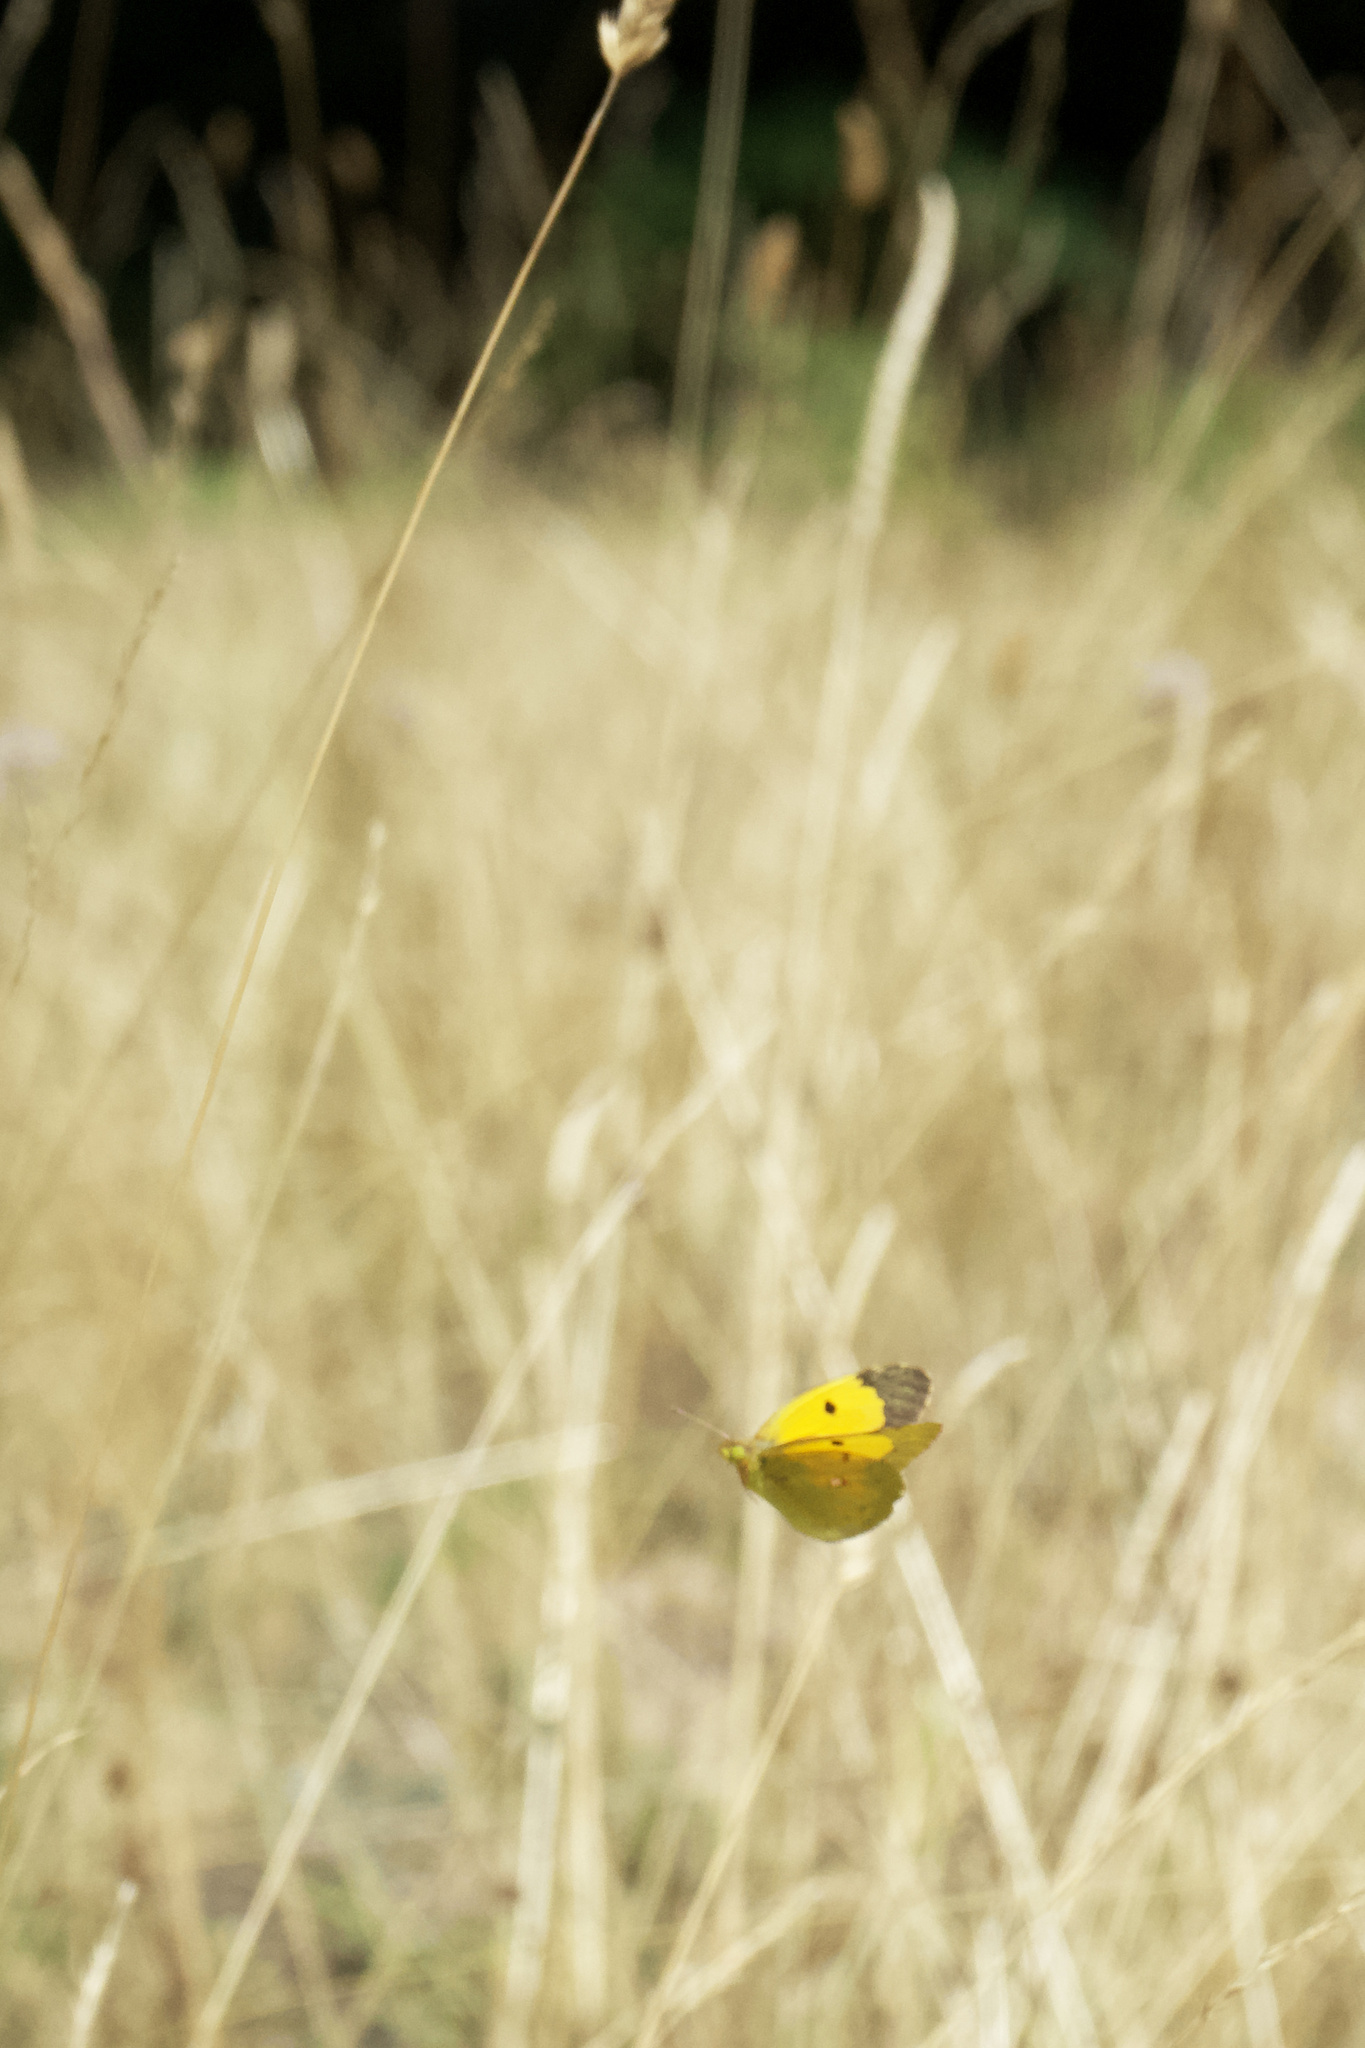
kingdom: Animalia
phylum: Arthropoda
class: Insecta
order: Lepidoptera
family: Pieridae
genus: Colias
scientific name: Colias croceus
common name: Clouded yellow
